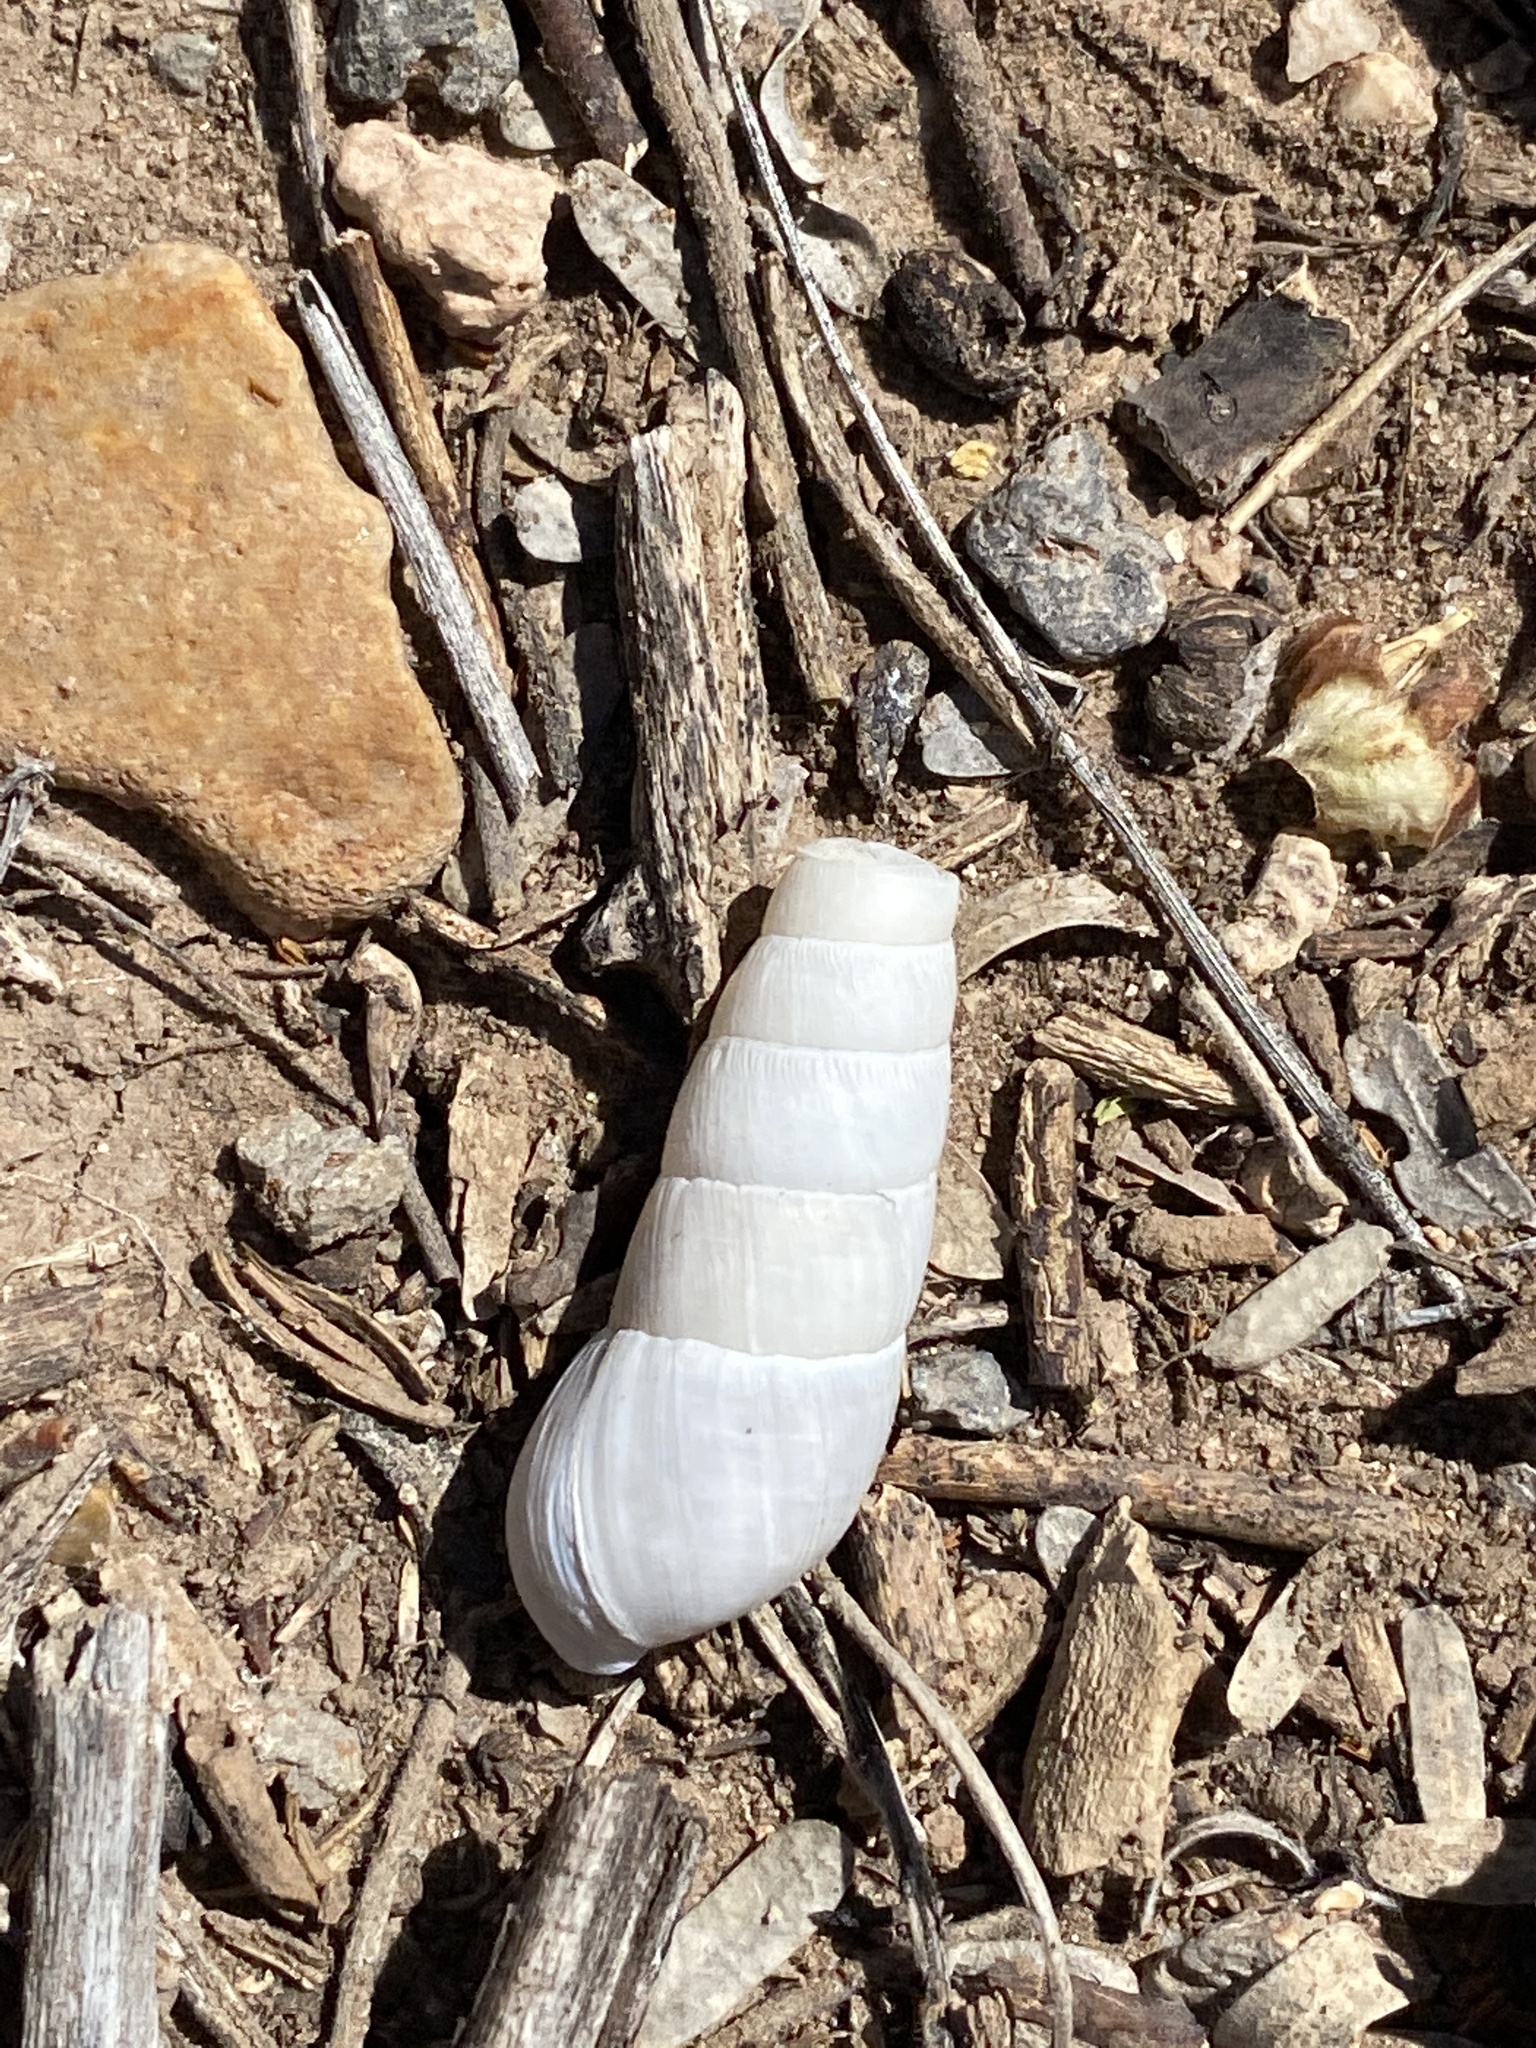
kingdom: Animalia
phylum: Mollusca
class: Gastropoda
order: Stylommatophora
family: Achatinidae
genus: Rumina
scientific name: Rumina decollata
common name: Decollate snail
